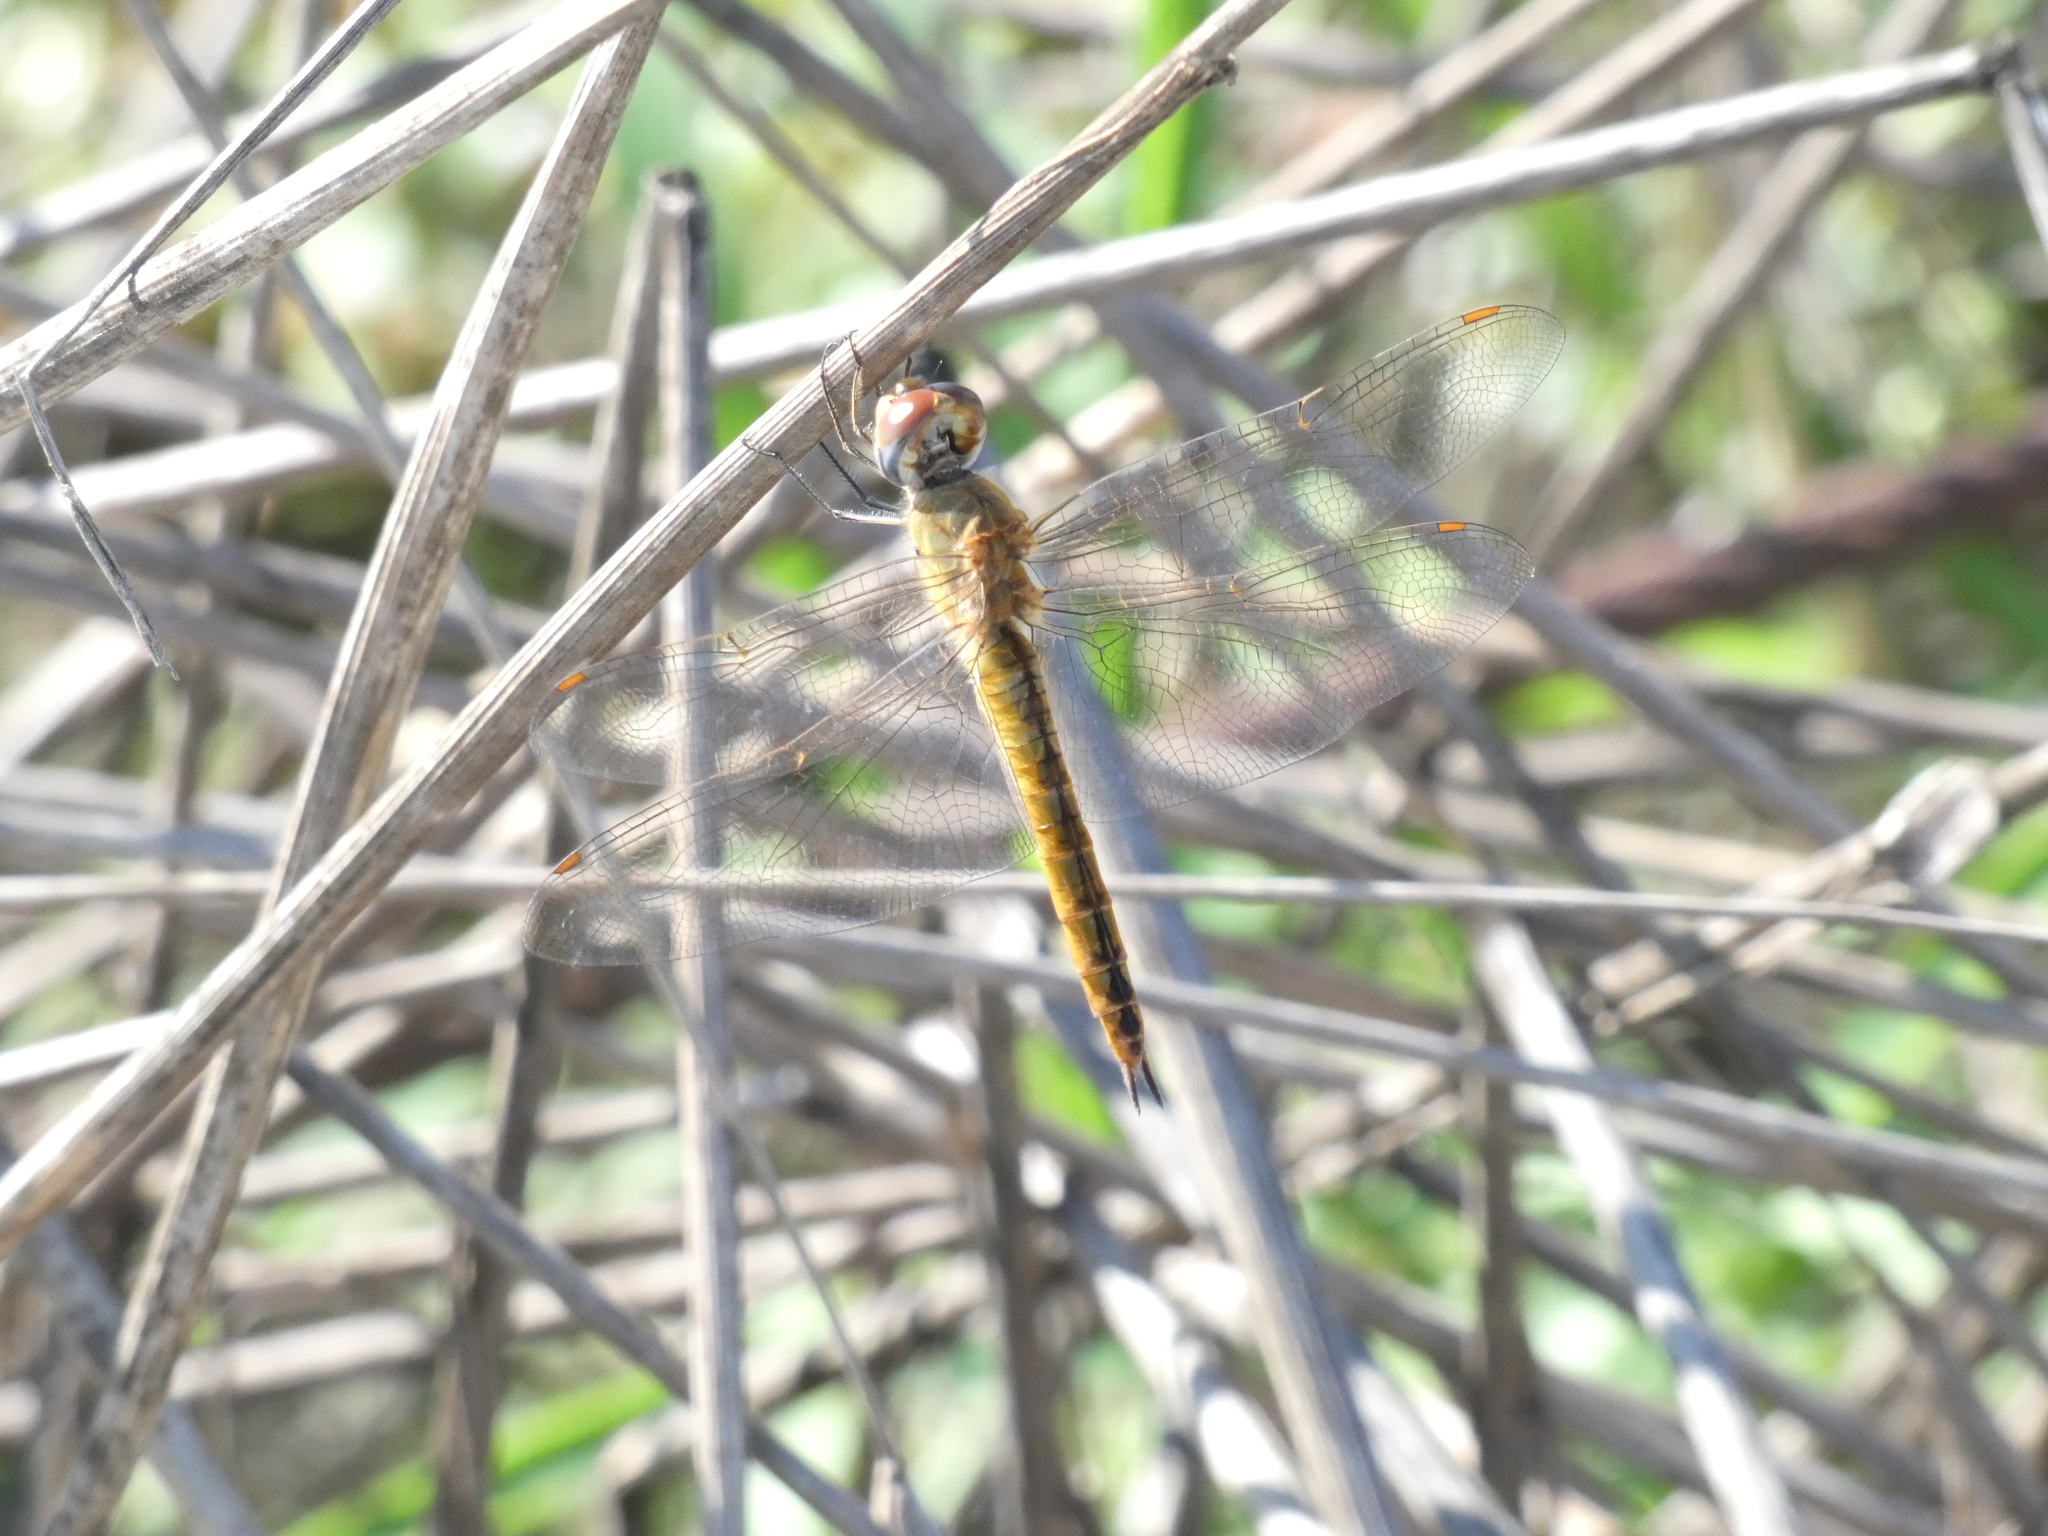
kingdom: Animalia
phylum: Arthropoda
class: Insecta
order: Odonata
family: Libellulidae
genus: Pantala
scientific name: Pantala flavescens
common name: Wandering glider
